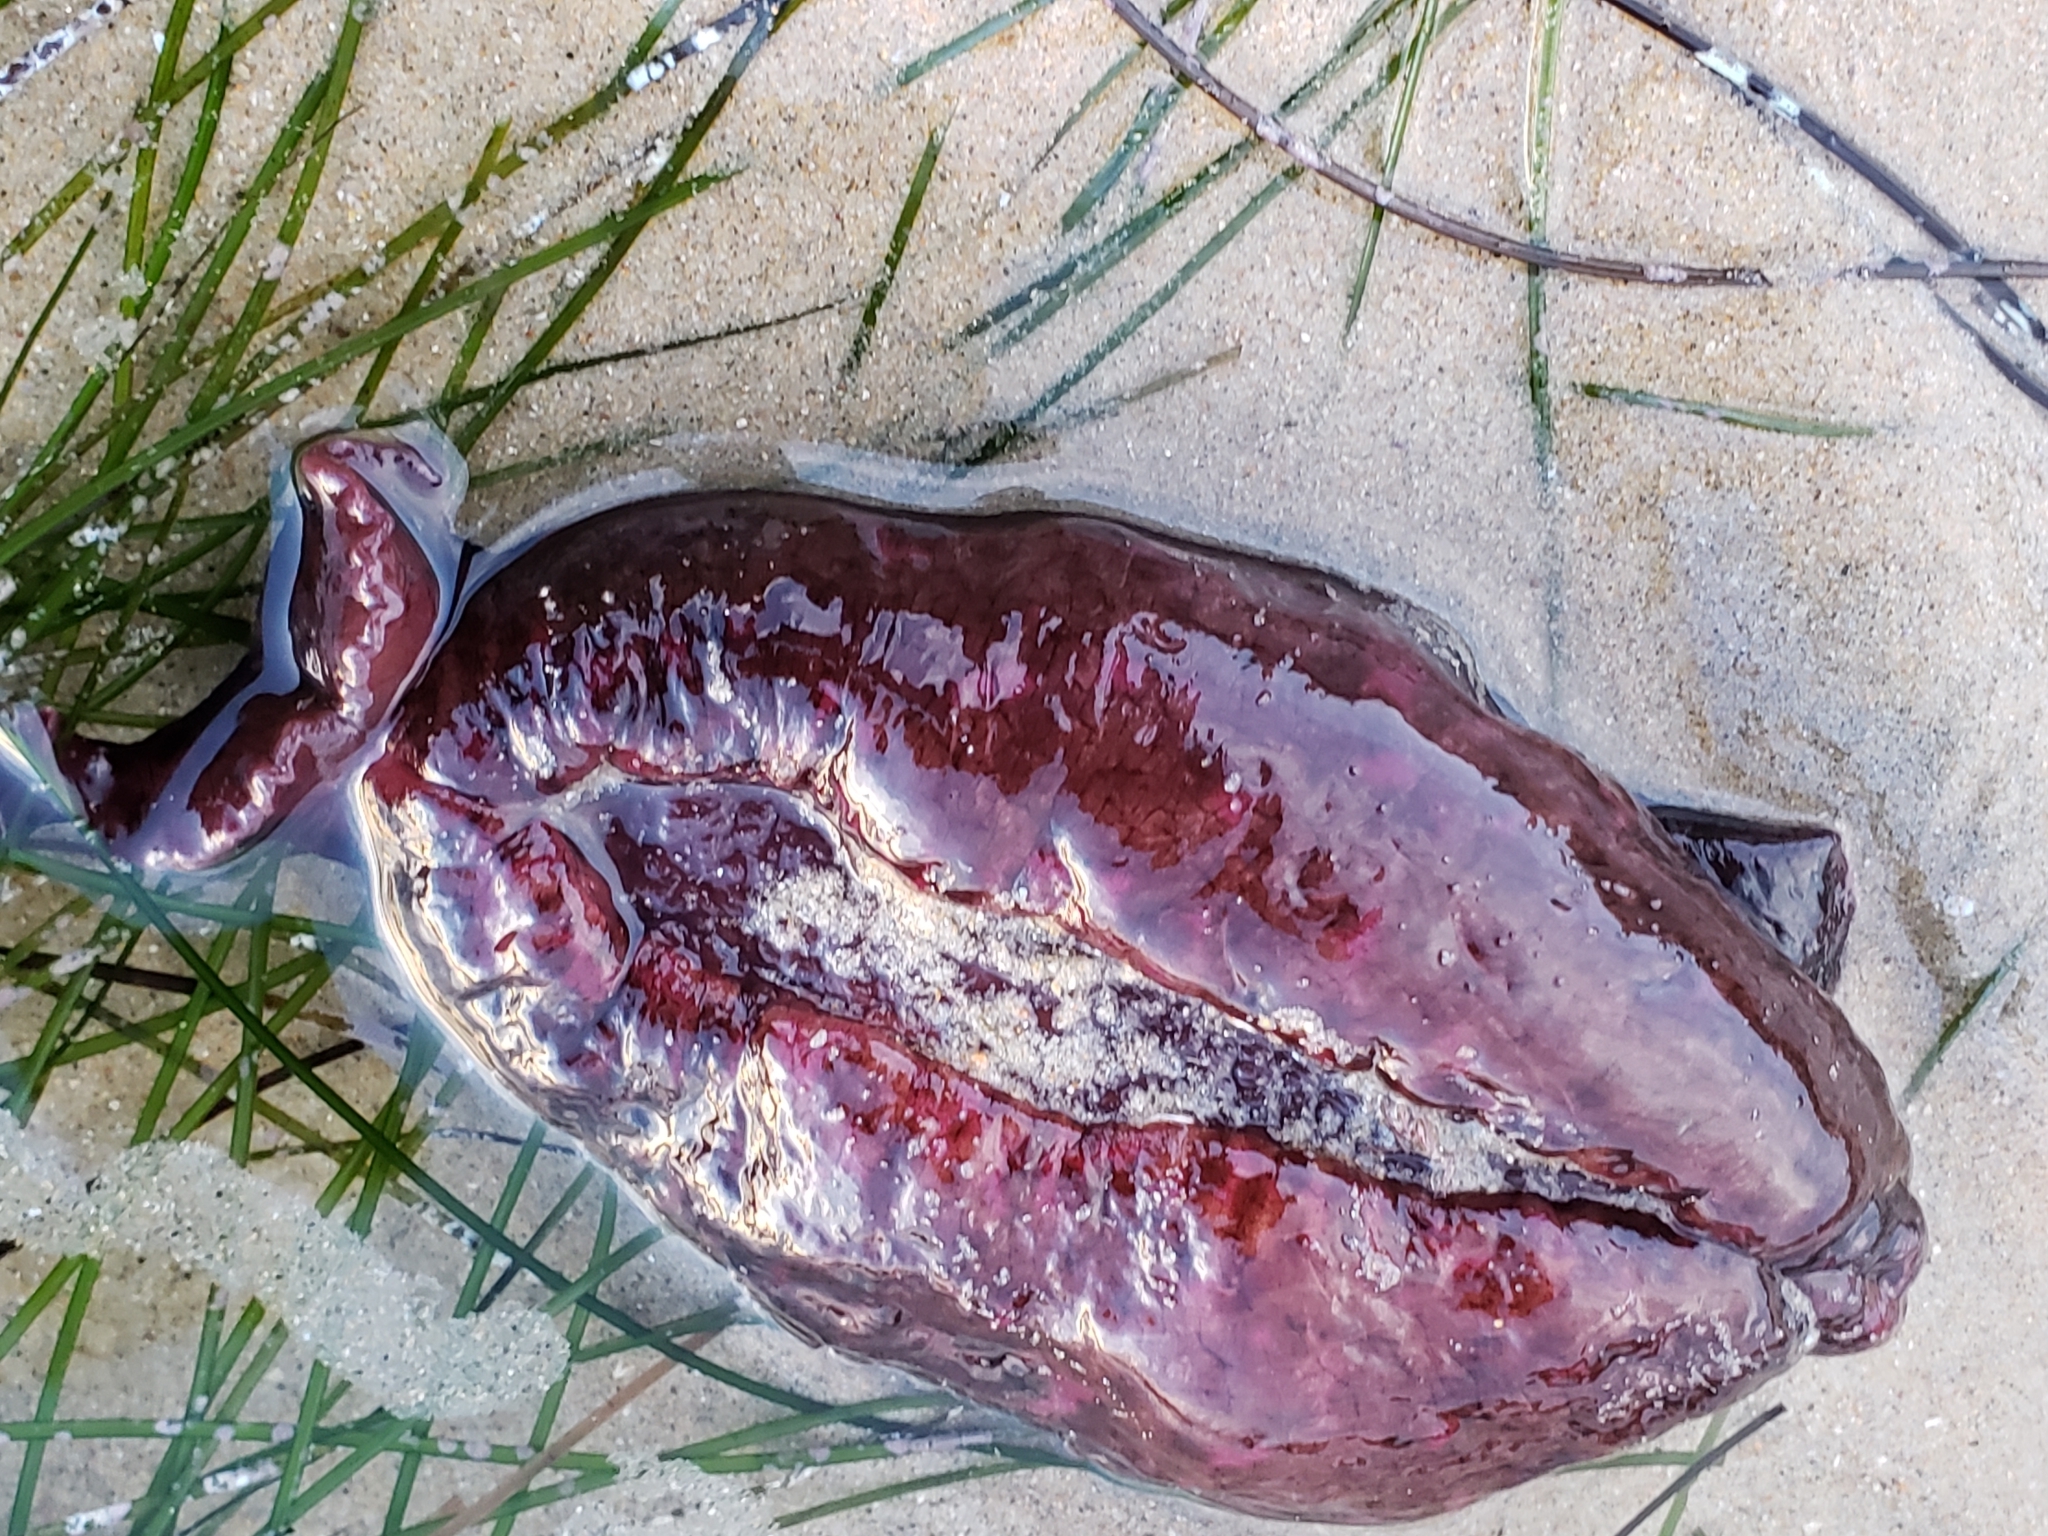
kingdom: Animalia
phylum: Mollusca
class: Gastropoda
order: Aplysiida
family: Aplysiidae
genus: Aplysia
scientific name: Aplysia californica
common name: California seahare
